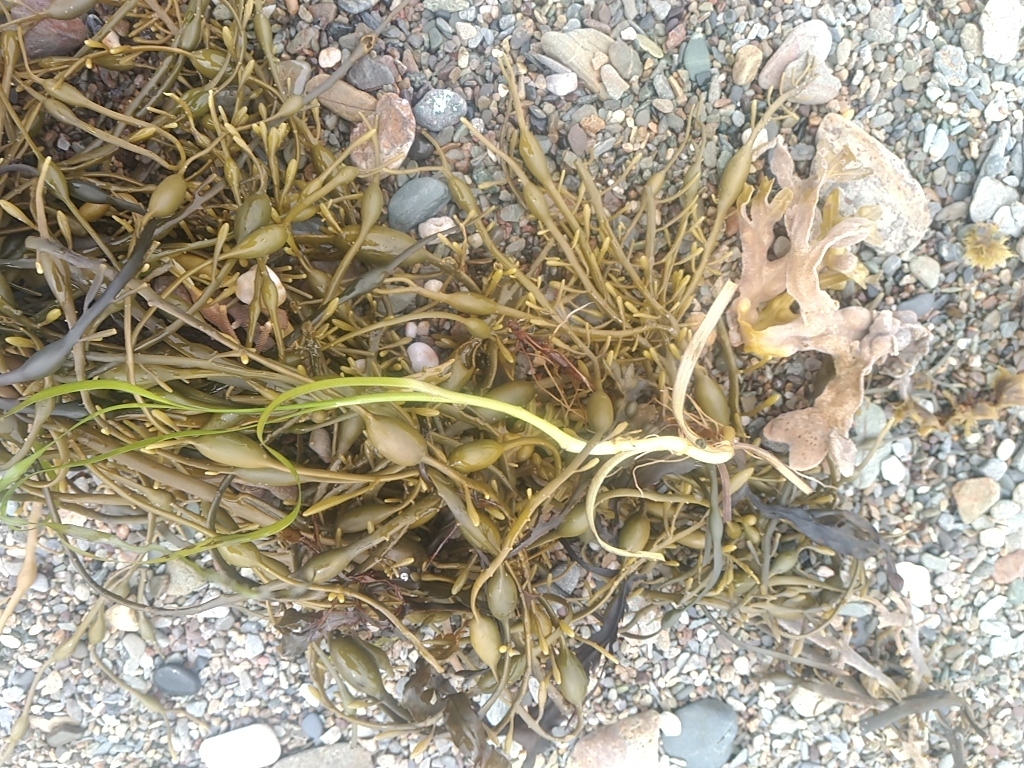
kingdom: Chromista
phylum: Ochrophyta
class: Phaeophyceae
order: Fucales
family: Fucaceae
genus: Ascophyllum
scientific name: Ascophyllum nodosum
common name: Knotted wrack
